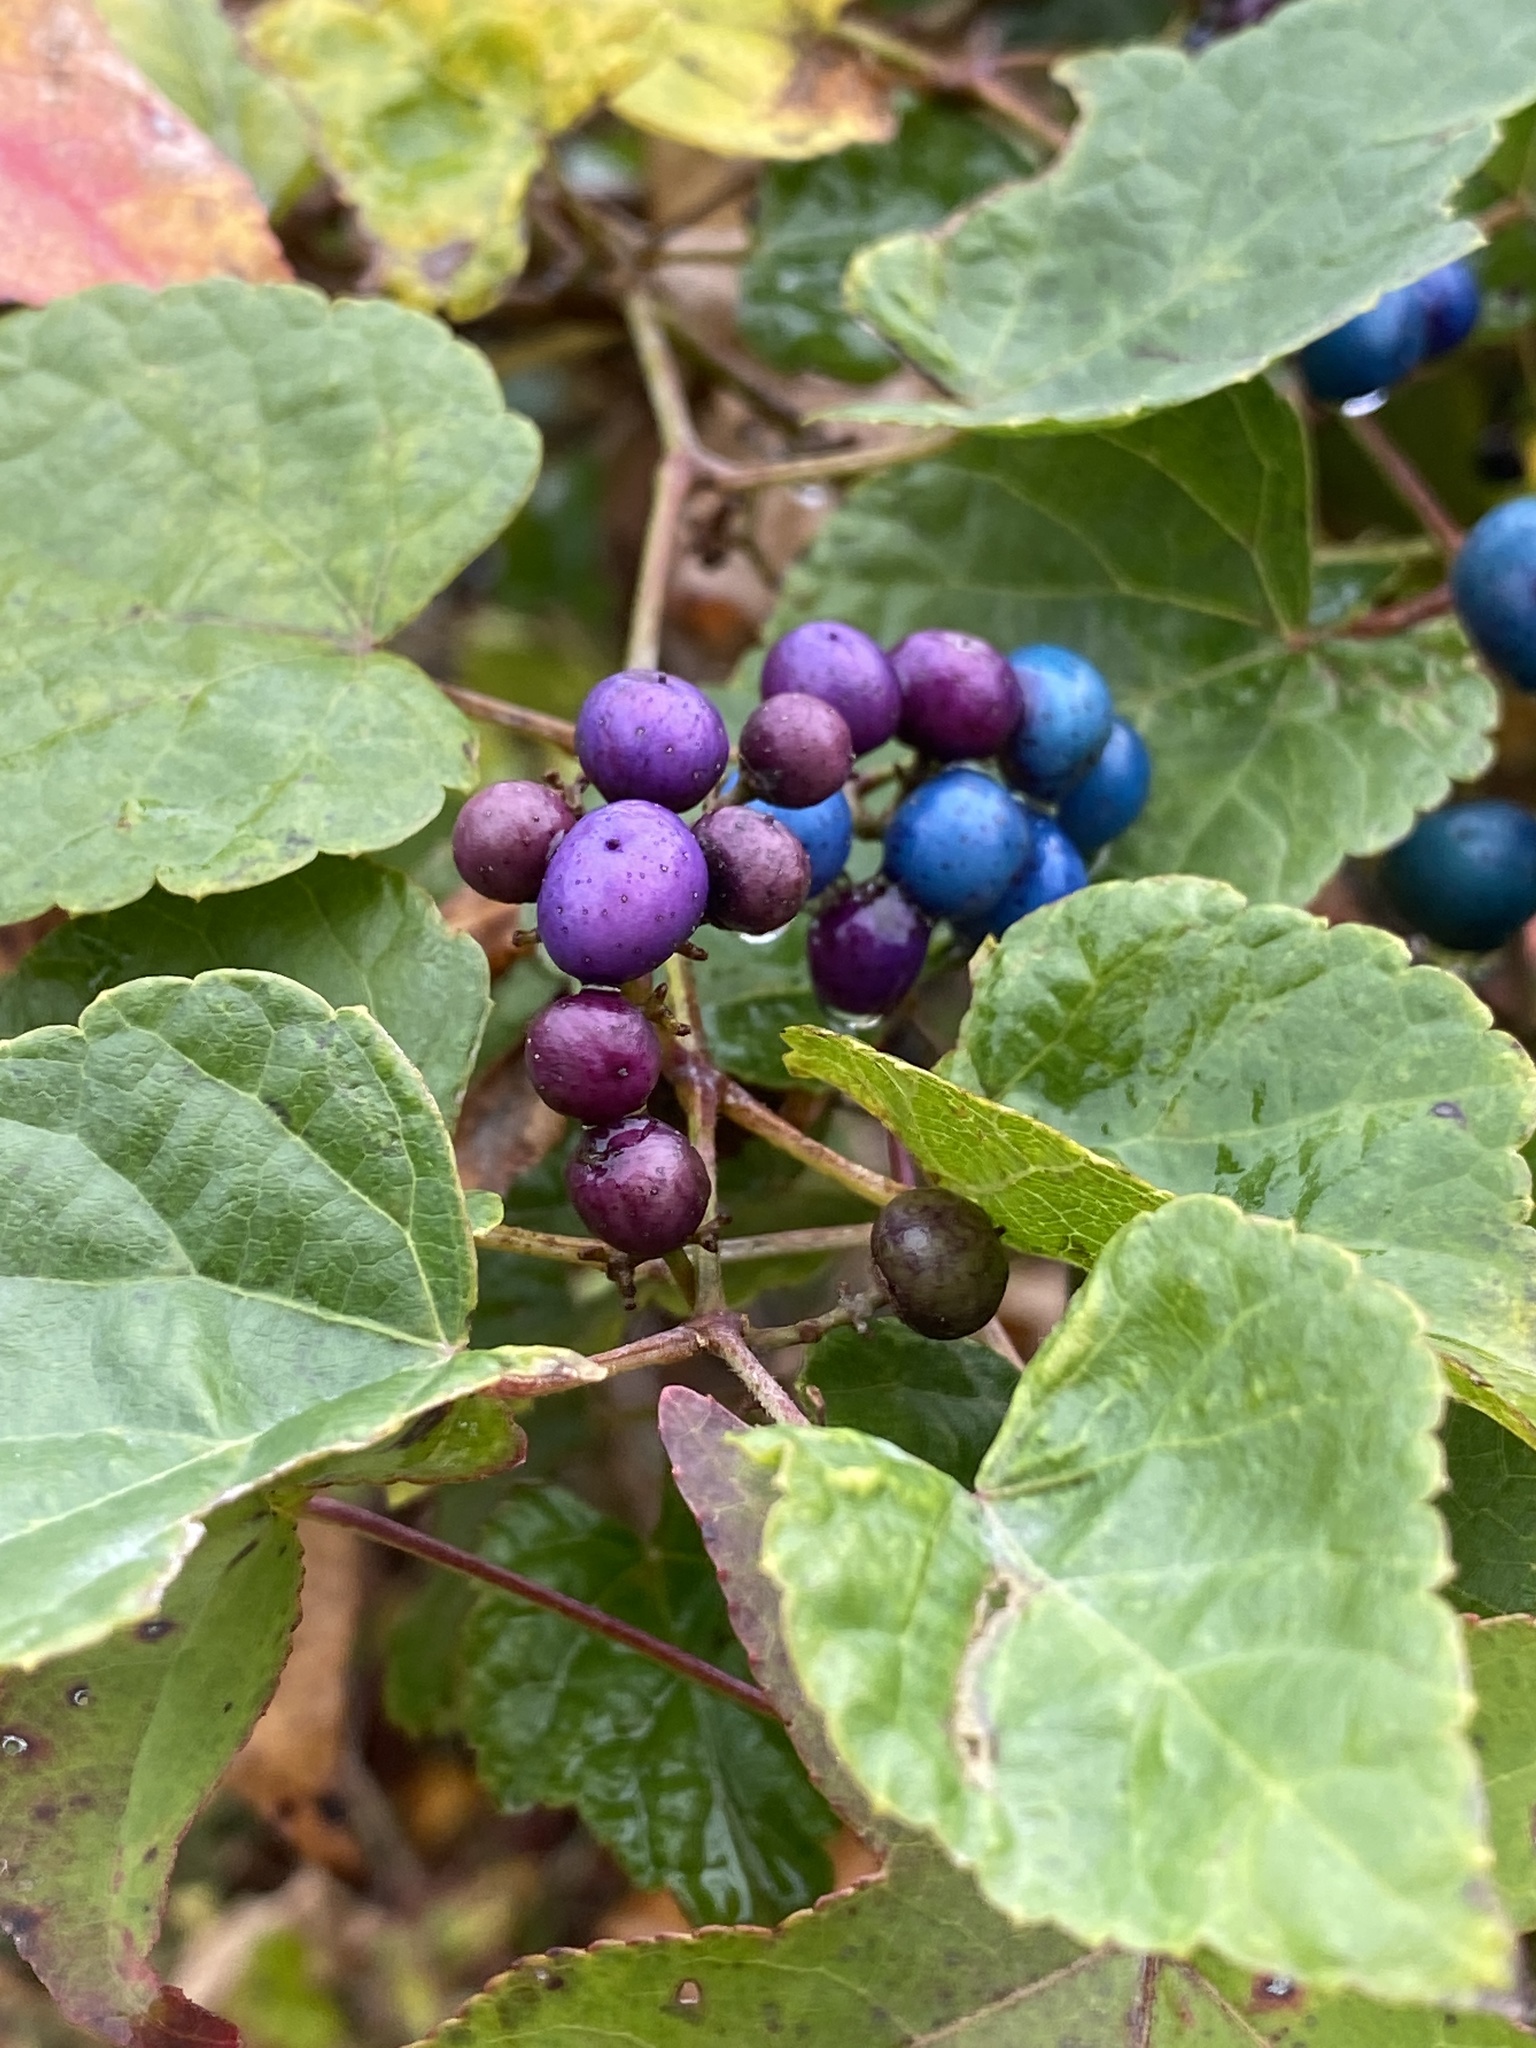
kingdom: Plantae
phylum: Tracheophyta
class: Magnoliopsida
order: Vitales
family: Vitaceae
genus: Ampelopsis
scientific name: Ampelopsis glandulosa
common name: Amur peppervine
